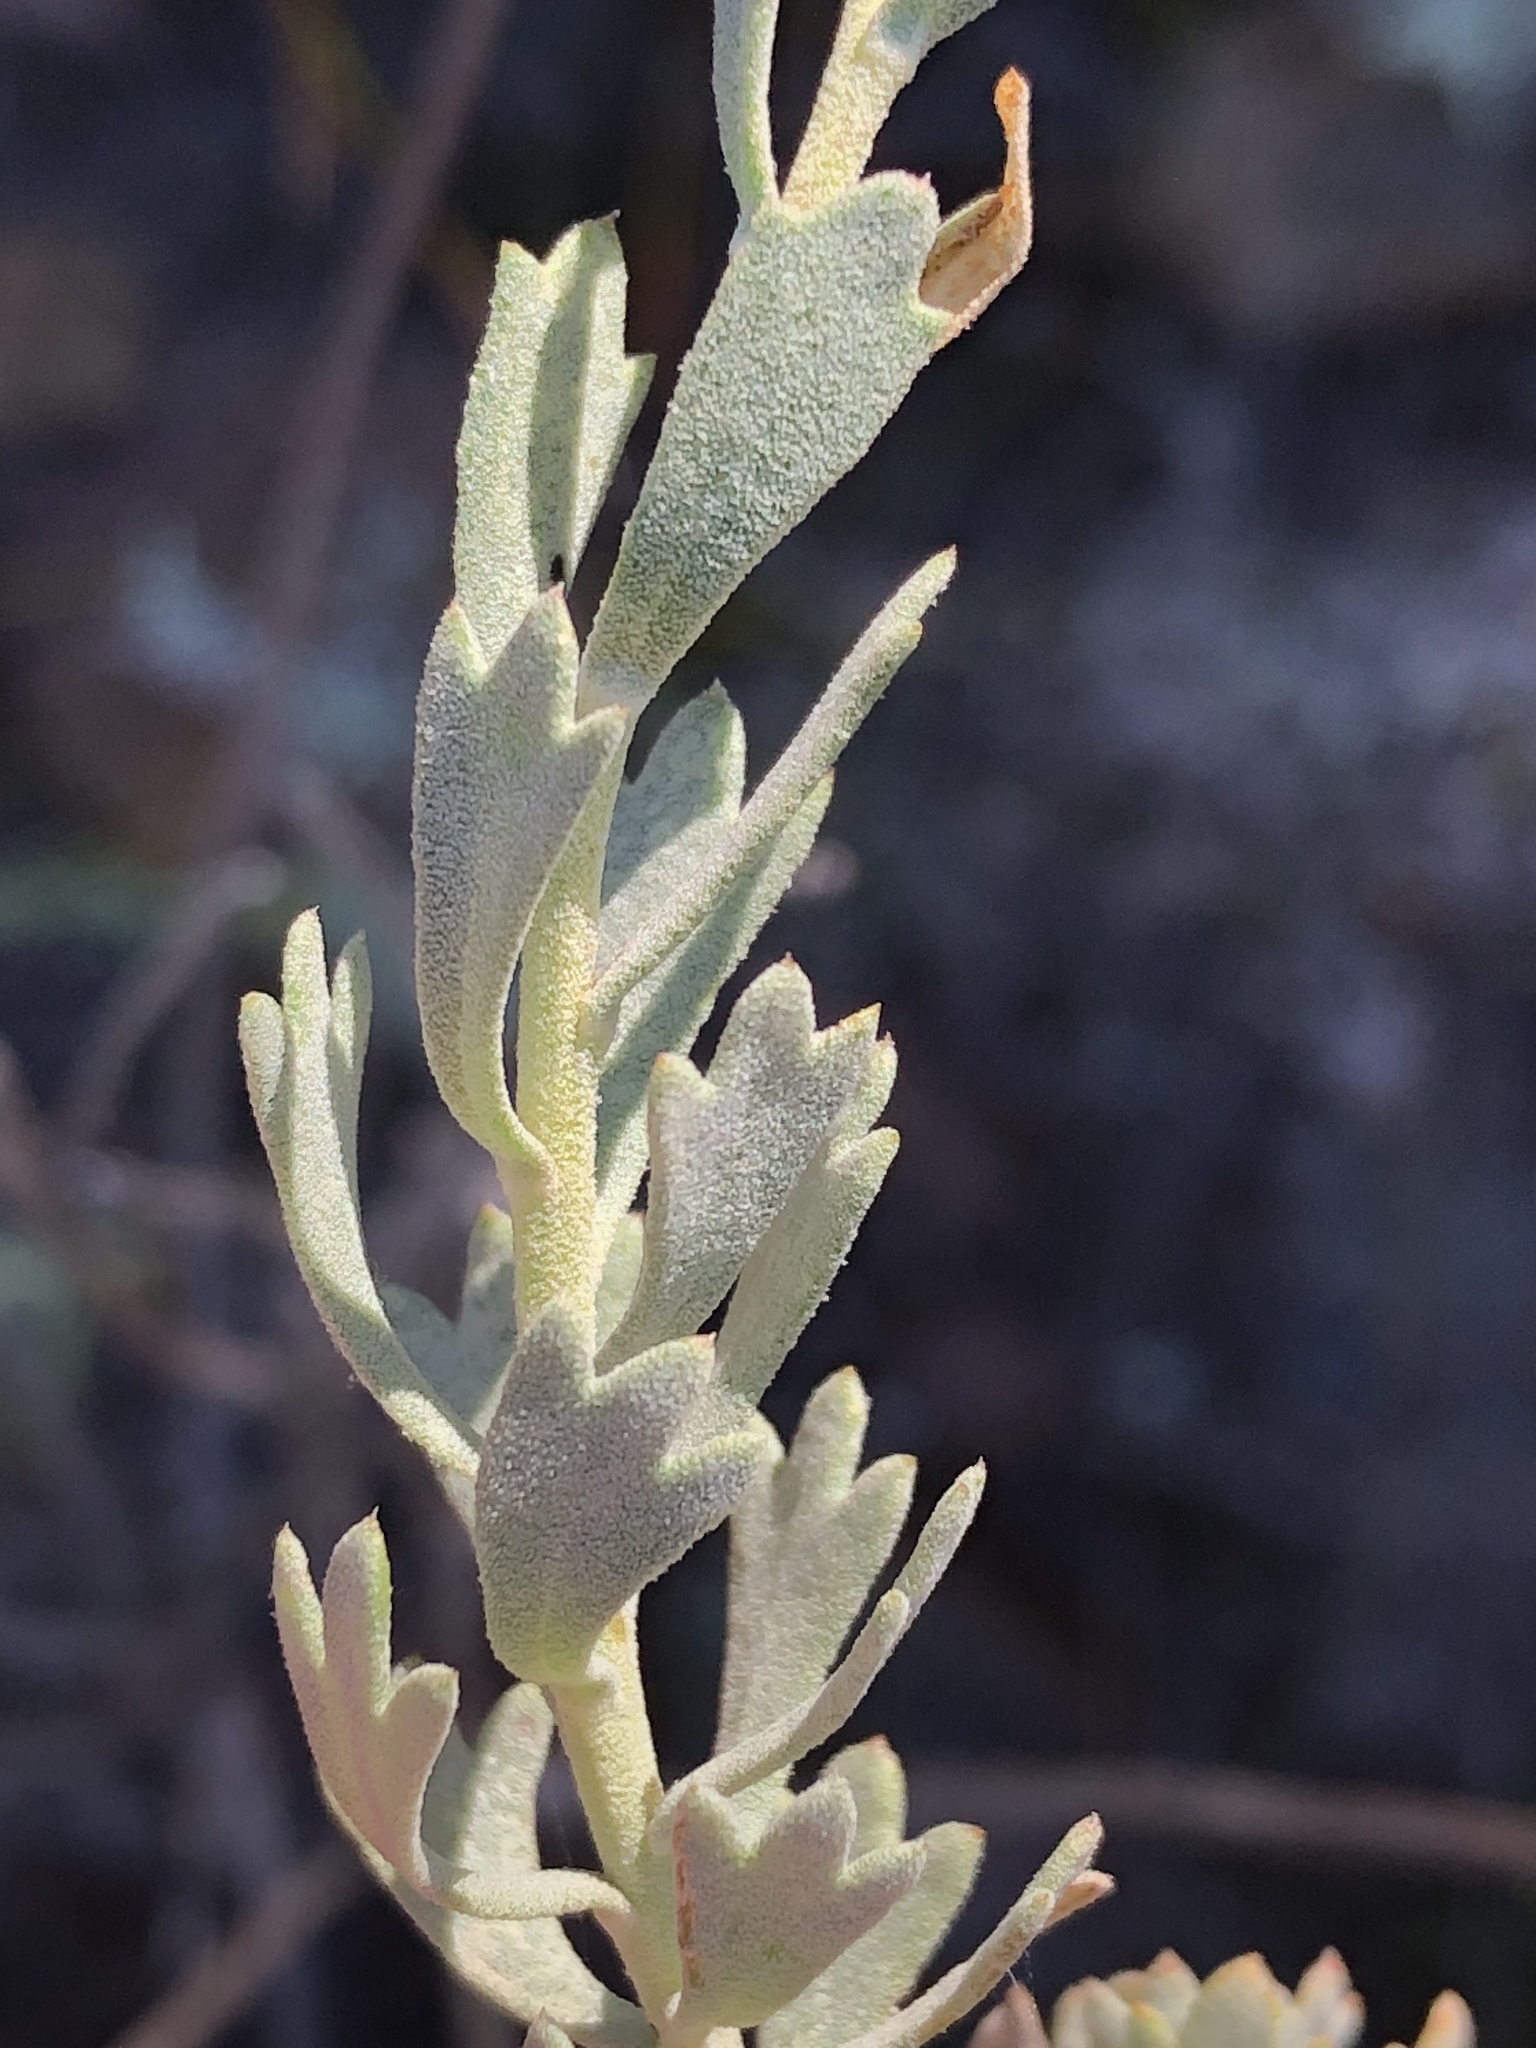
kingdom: Plantae
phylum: Tracheophyta
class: Magnoliopsida
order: Asterales
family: Asteraceae
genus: Athanasia
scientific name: Athanasia trifurcata
